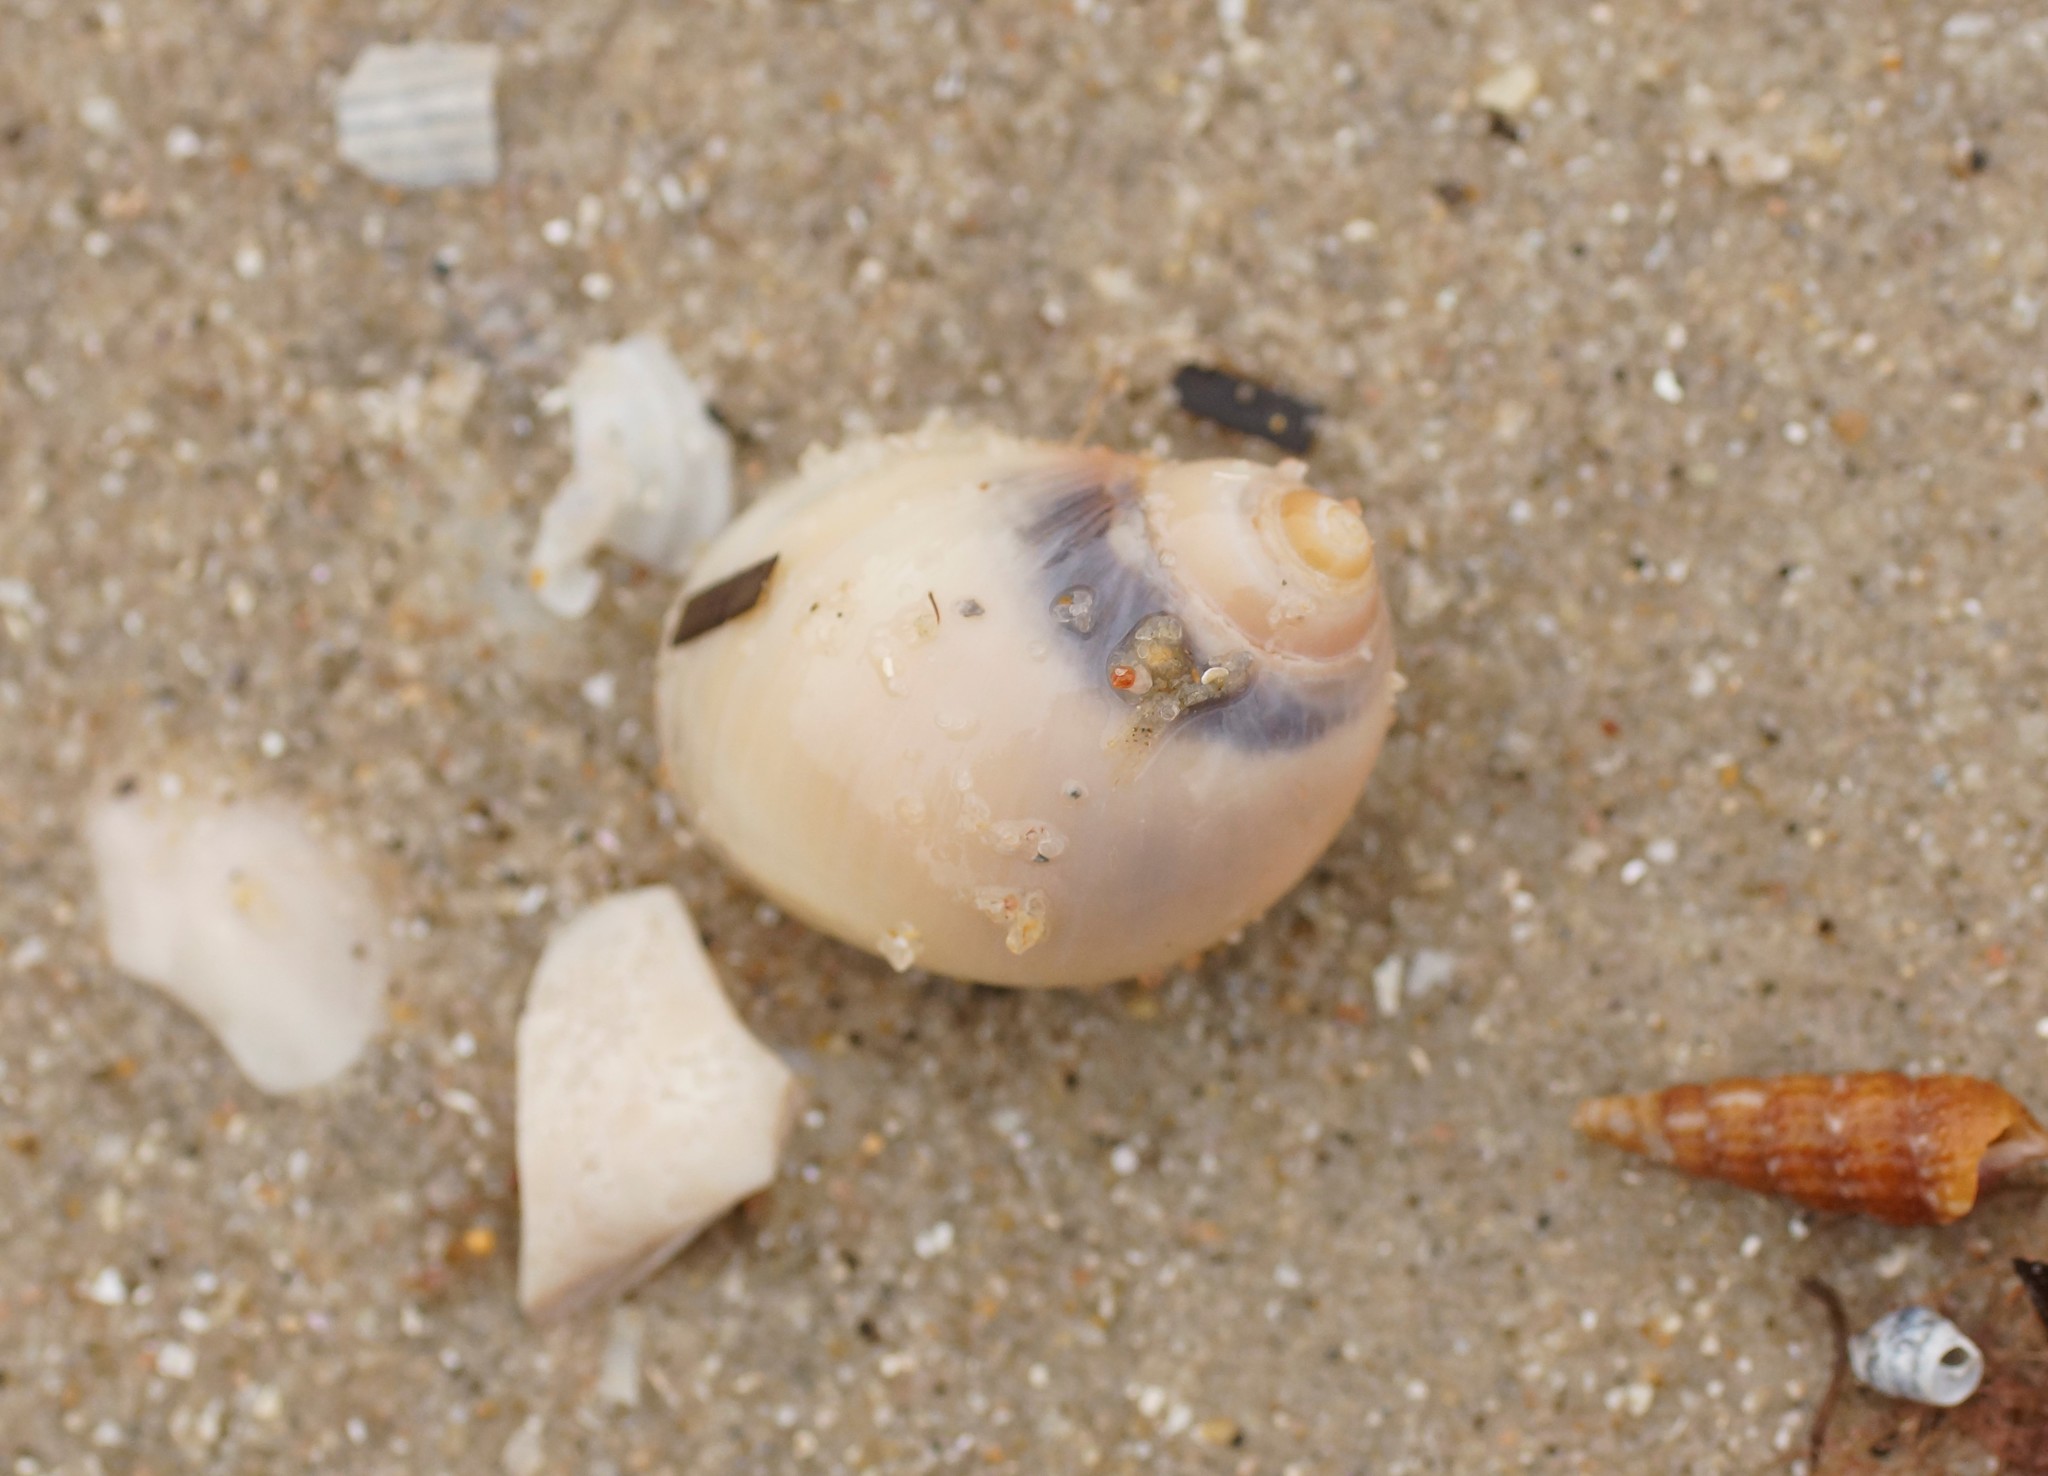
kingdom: Animalia
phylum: Mollusca
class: Gastropoda
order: Littorinimorpha
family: Naticidae
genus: Conuber
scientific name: Conuber conicum
